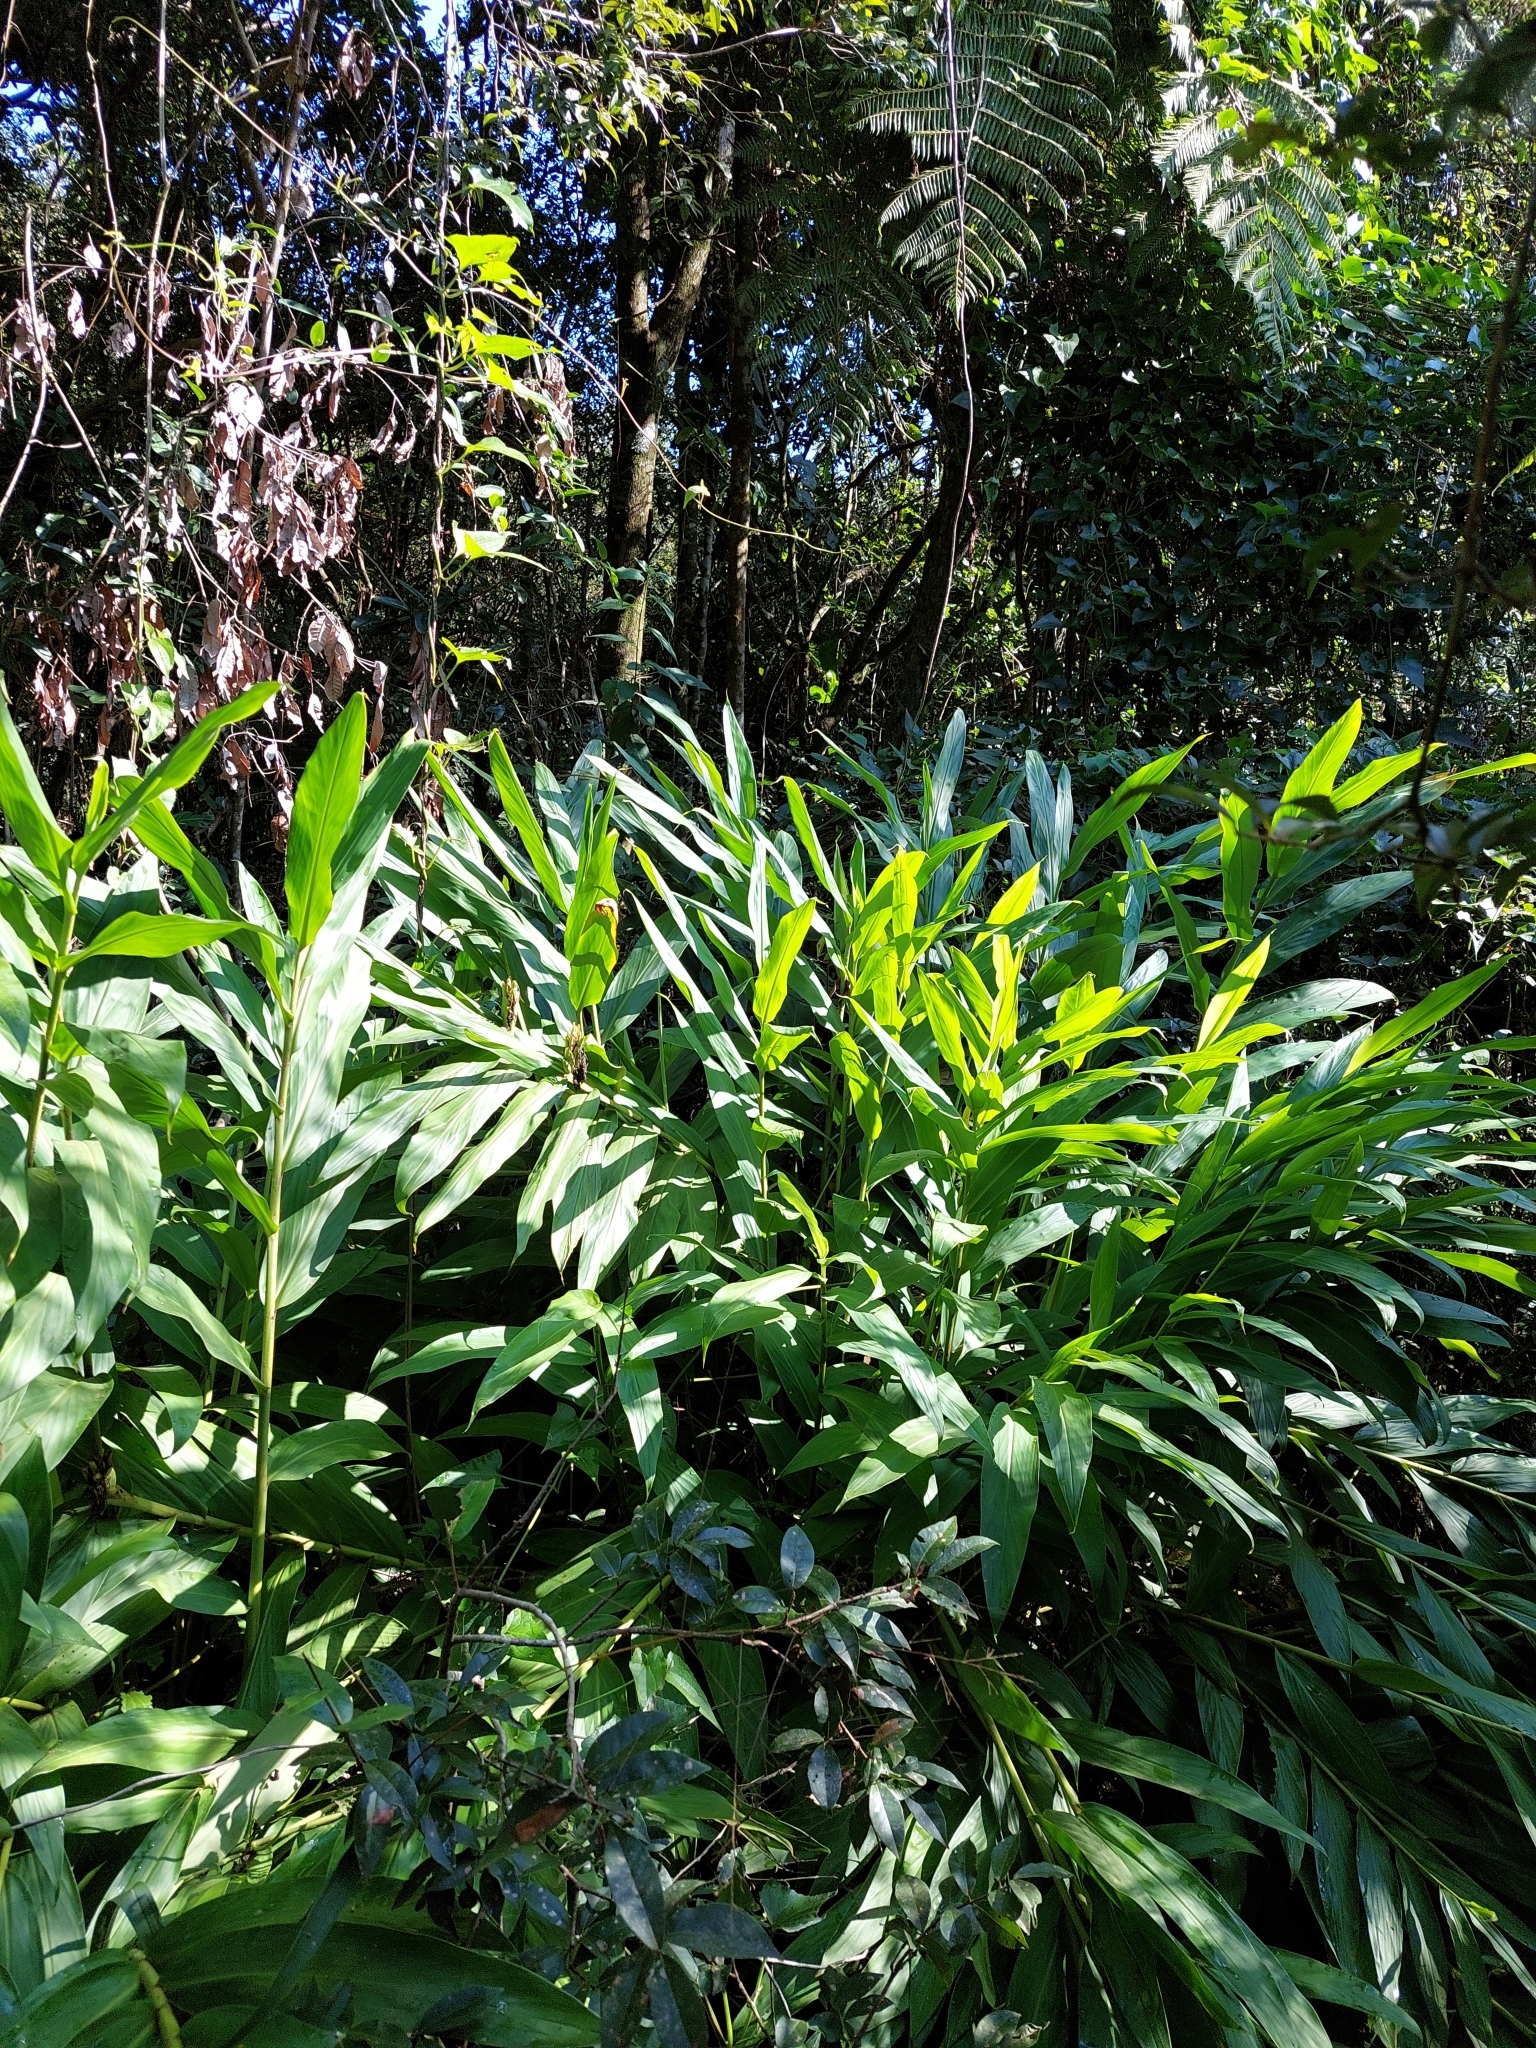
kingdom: Plantae
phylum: Tracheophyta
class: Liliopsida
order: Zingiberales
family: Zingiberaceae
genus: Hedychium
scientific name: Hedychium coronarium
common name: White garland-lily
